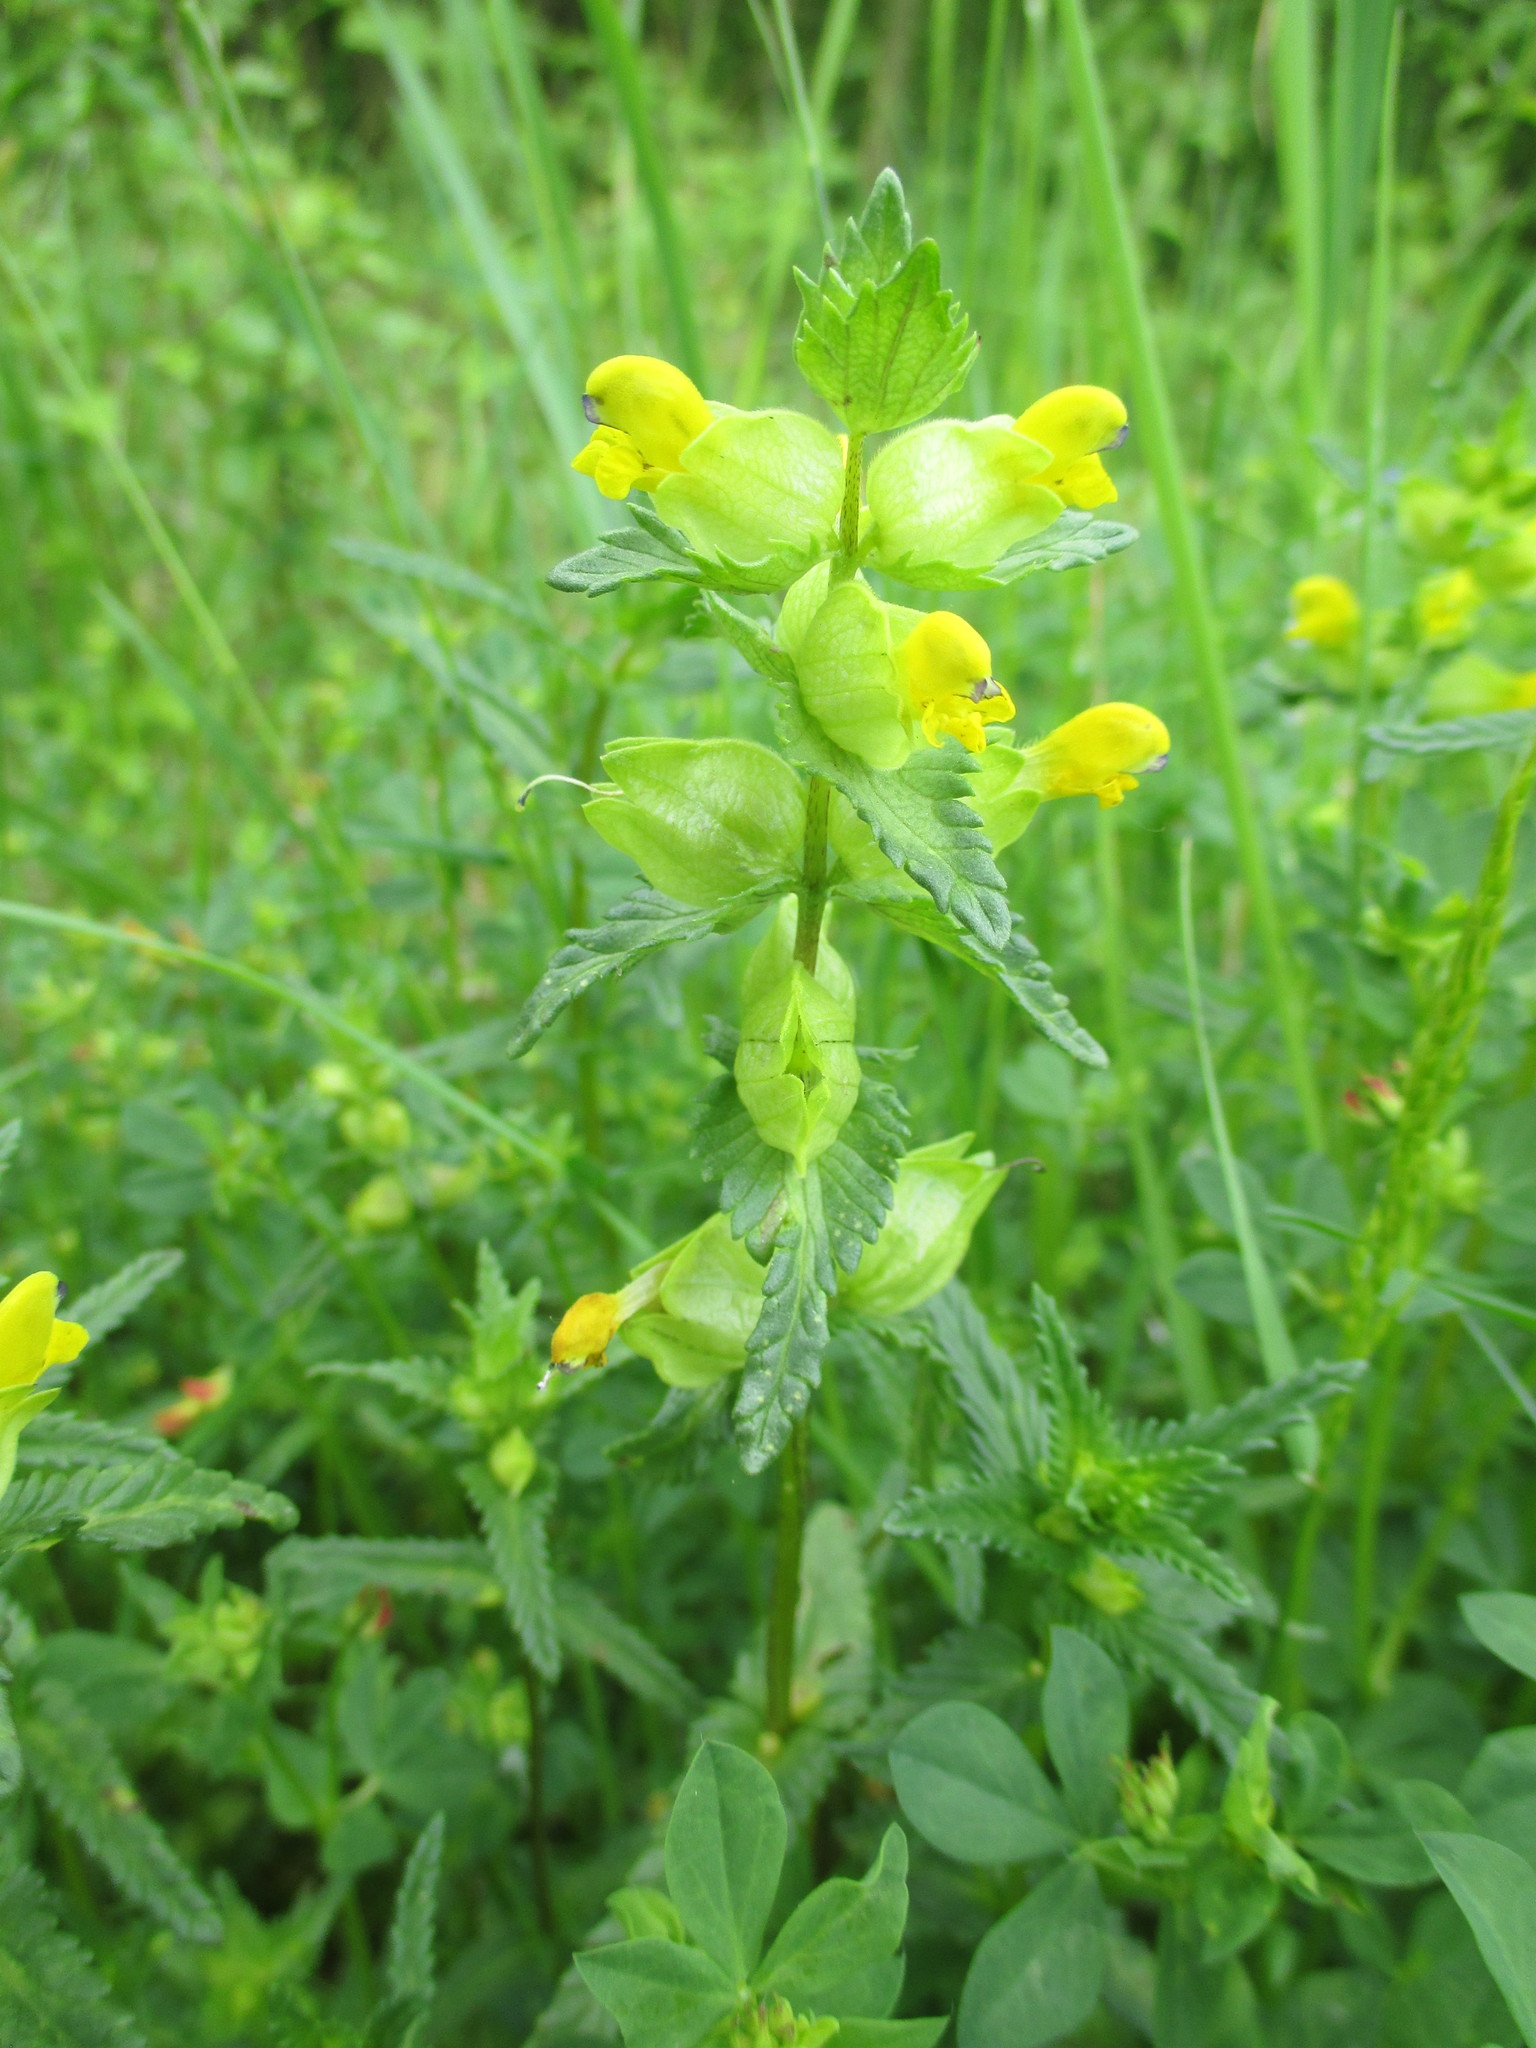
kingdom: Plantae
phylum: Tracheophyta
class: Magnoliopsida
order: Lamiales
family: Orobanchaceae
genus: Rhinanthus
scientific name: Rhinanthus minor
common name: Yellow-rattle
